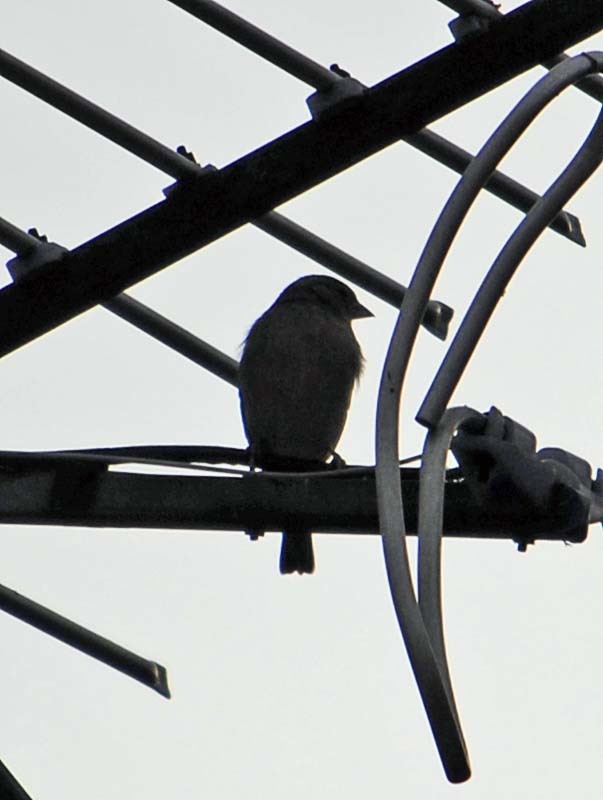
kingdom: Animalia
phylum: Chordata
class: Aves
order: Passeriformes
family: Fringillidae
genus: Haemorhous
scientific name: Haemorhous mexicanus
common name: House finch
